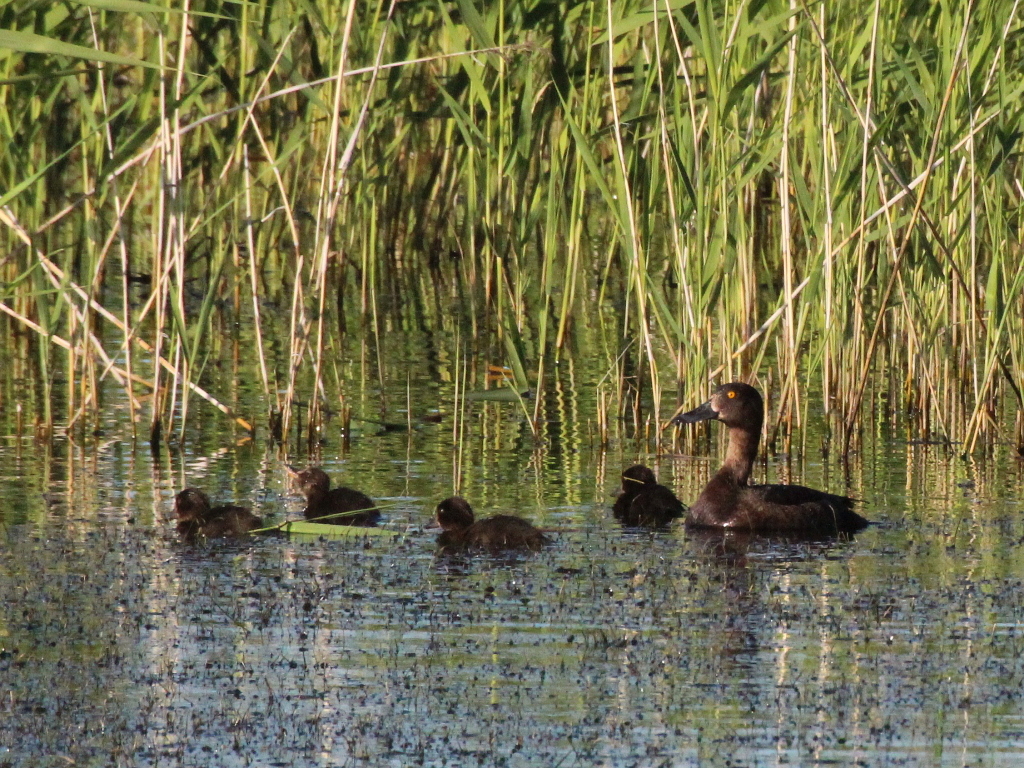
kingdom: Animalia
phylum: Chordata
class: Aves
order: Anseriformes
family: Anatidae
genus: Aythya
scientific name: Aythya fuligula
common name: Tufted duck
